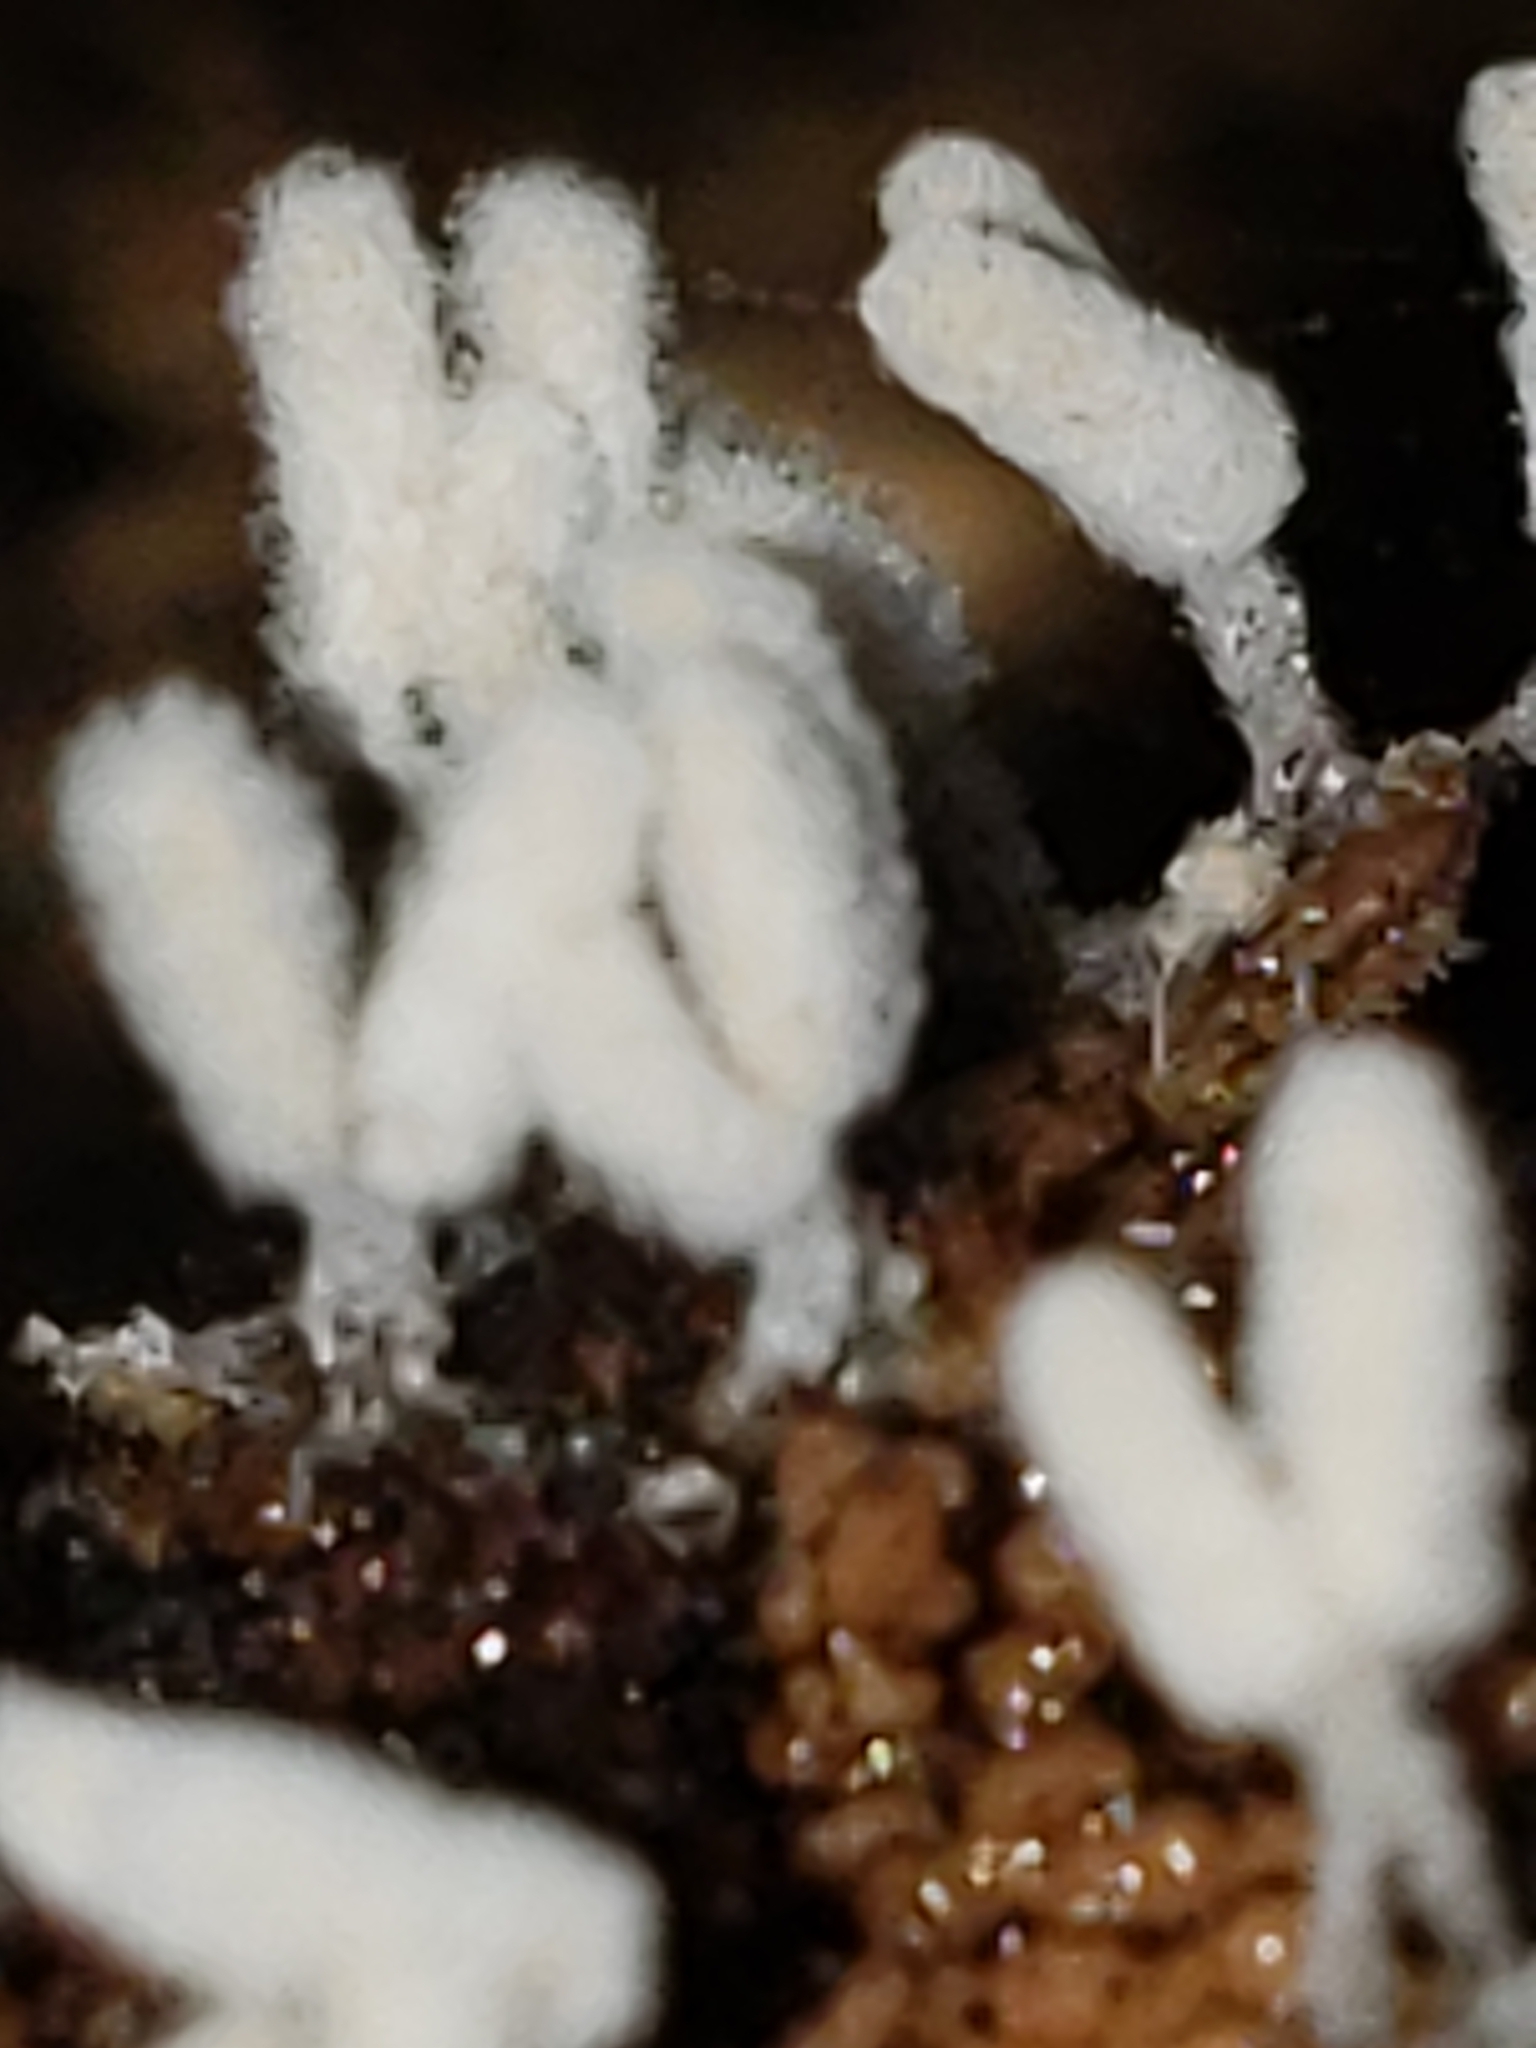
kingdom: Protozoa
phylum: Mycetozoa
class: Myxomycetes
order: Trichiales
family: Arcyriaceae
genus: Arcyria
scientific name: Arcyria cinerea
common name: White carnival candy slime mold
